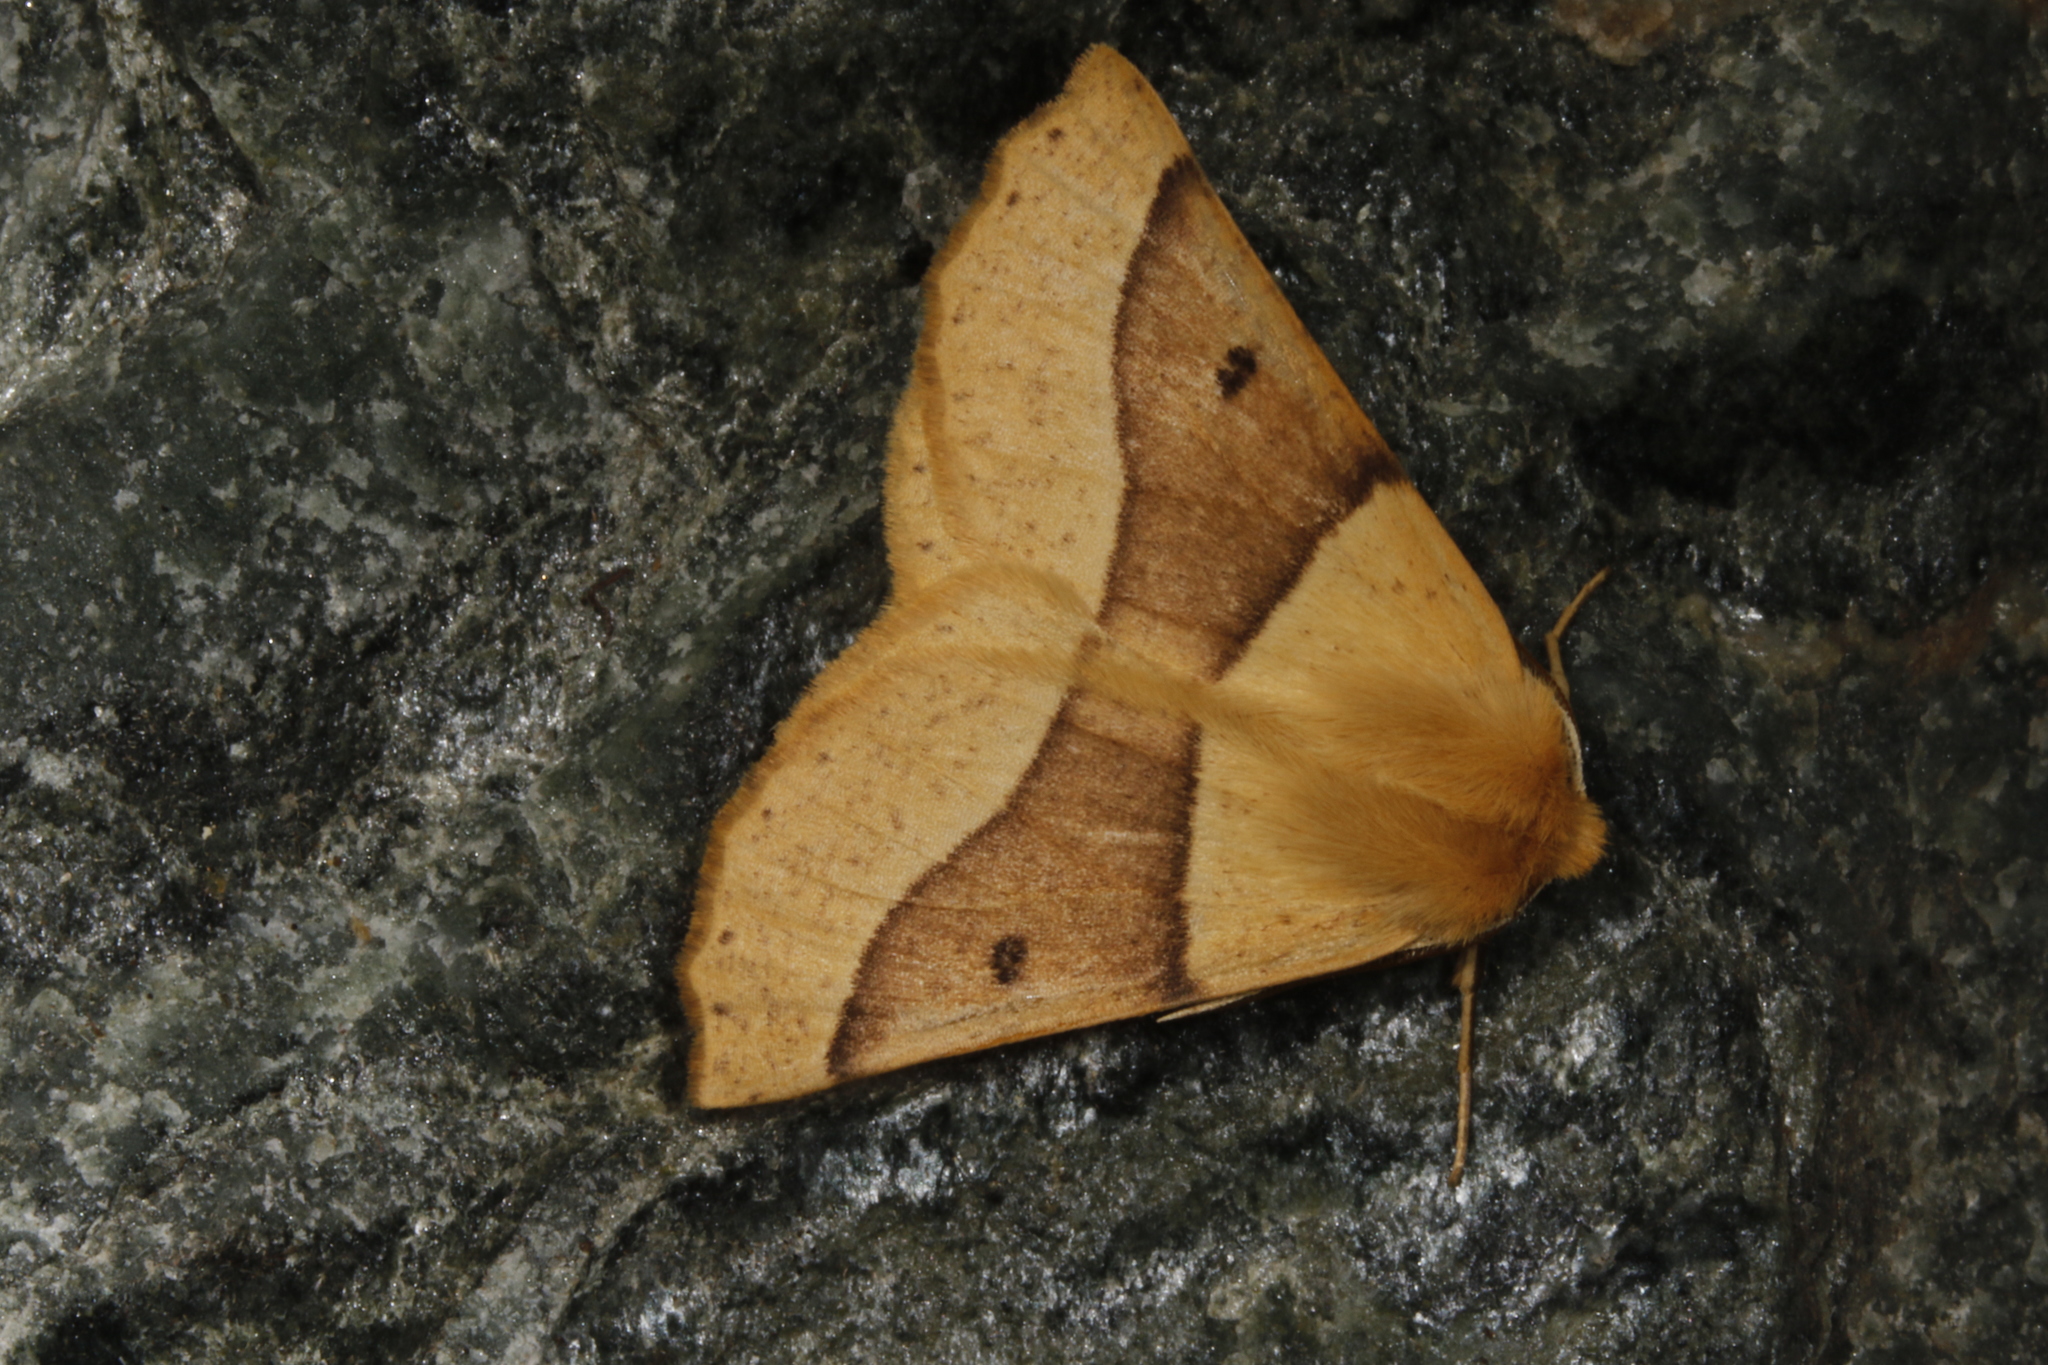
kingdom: Animalia
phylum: Arthropoda
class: Insecta
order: Lepidoptera
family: Geometridae
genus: Crocallis
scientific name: Crocallis elinguaria
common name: Scalloped oak
